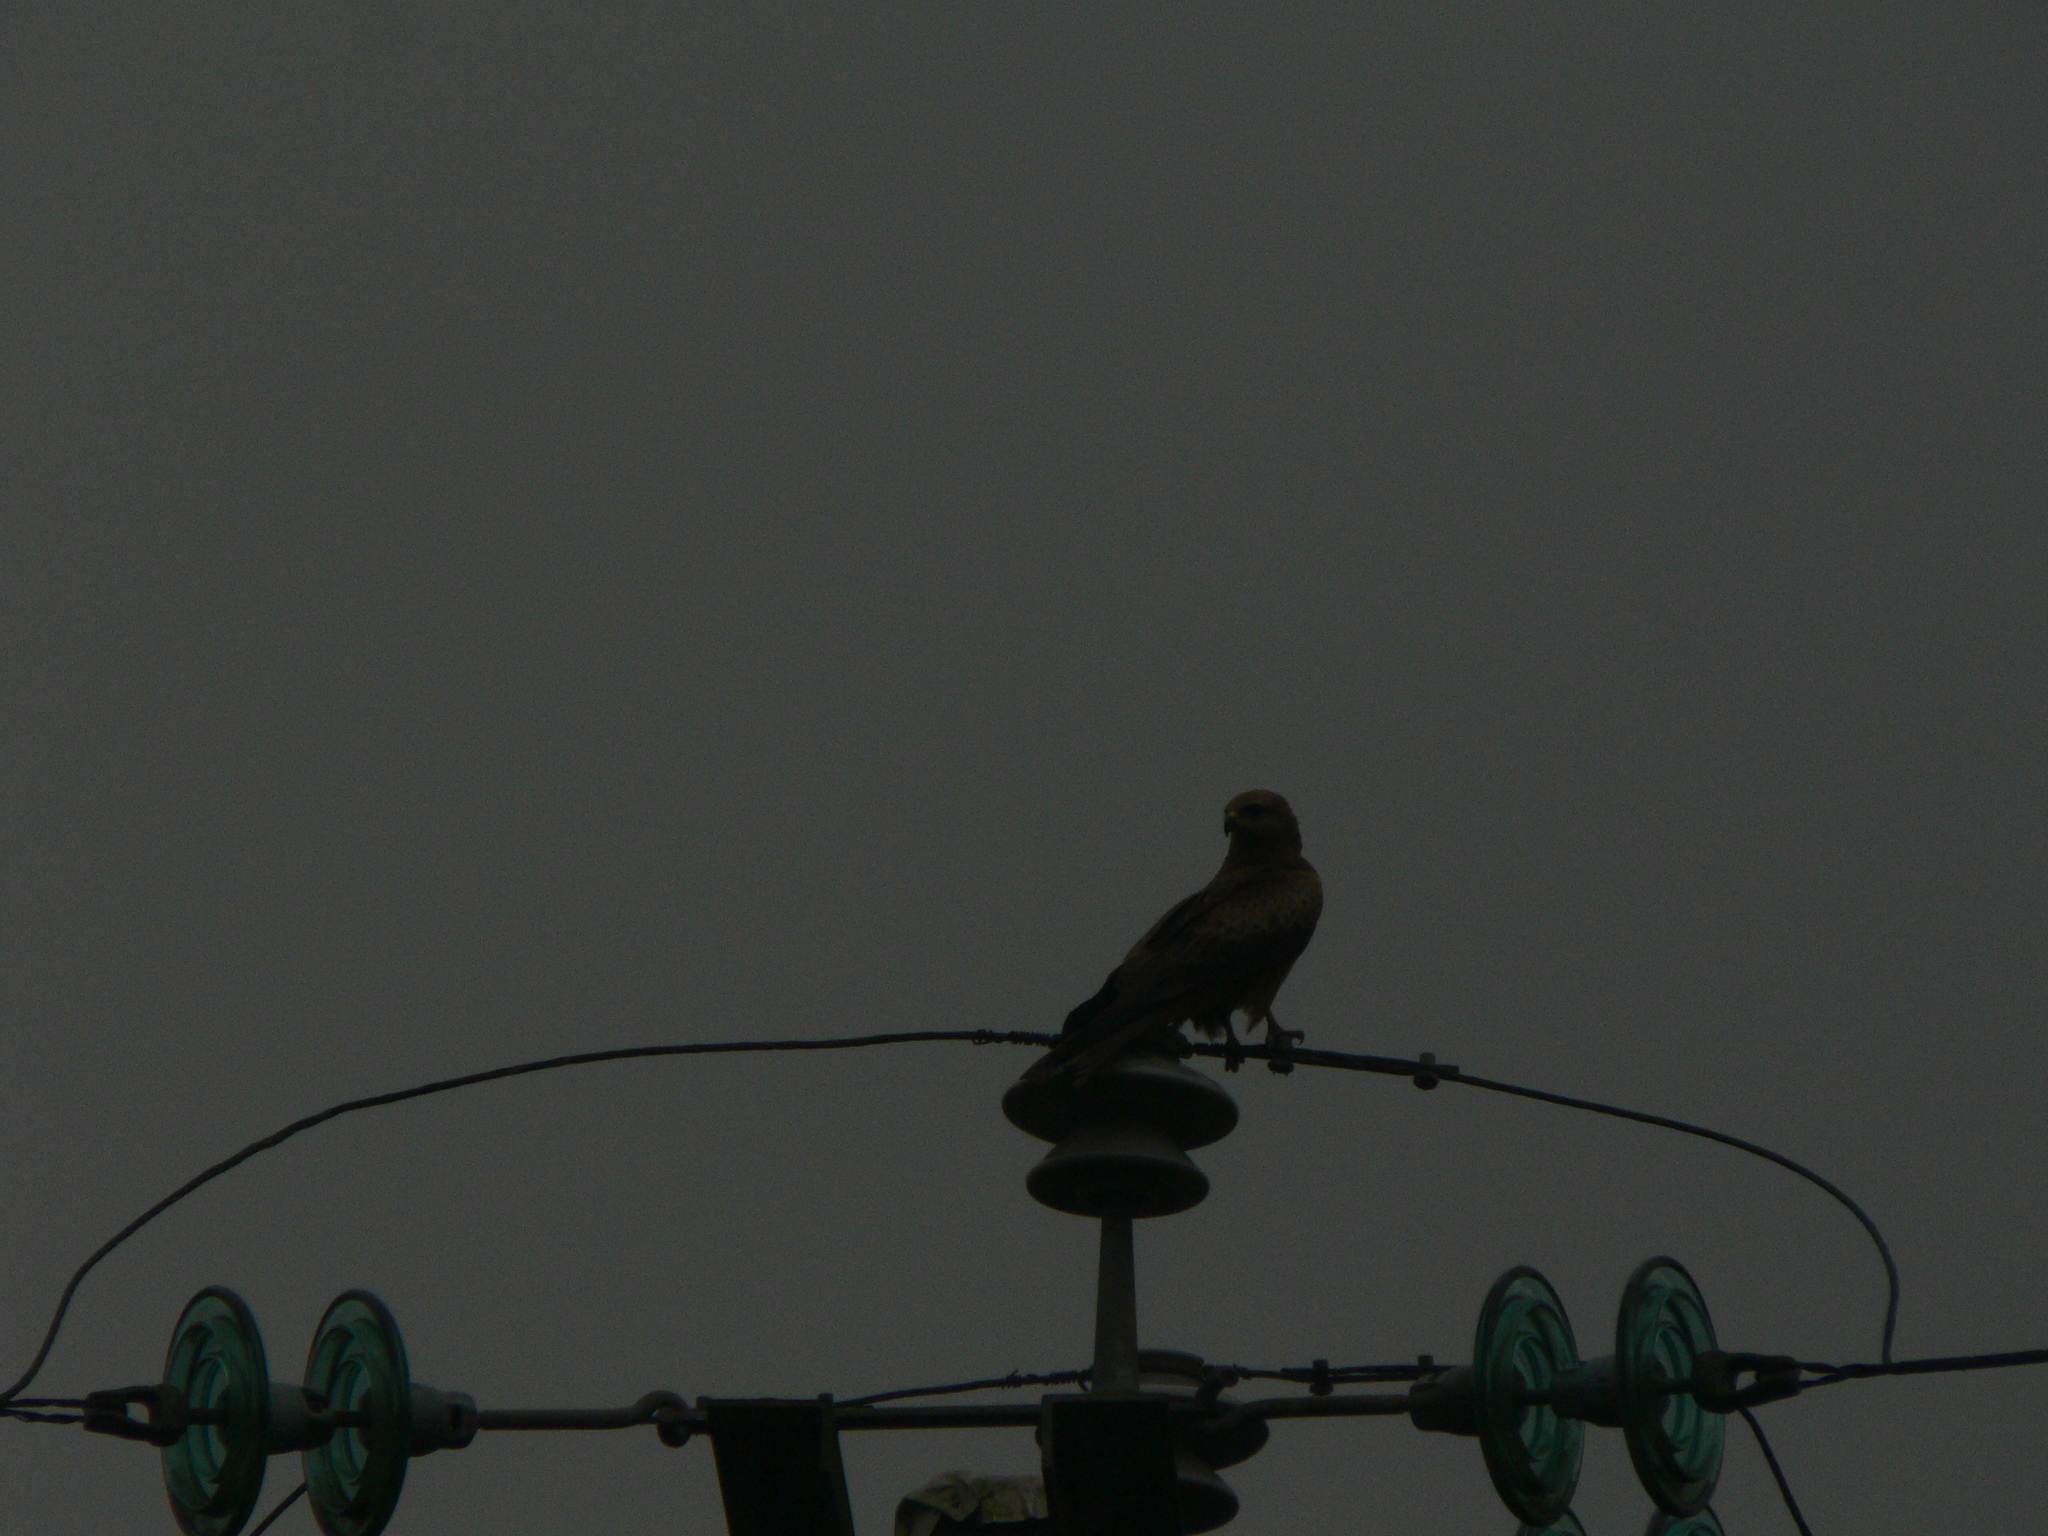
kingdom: Animalia
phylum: Chordata
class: Aves
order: Accipitriformes
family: Accipitridae
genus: Milvus
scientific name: Milvus migrans
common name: Black kite
